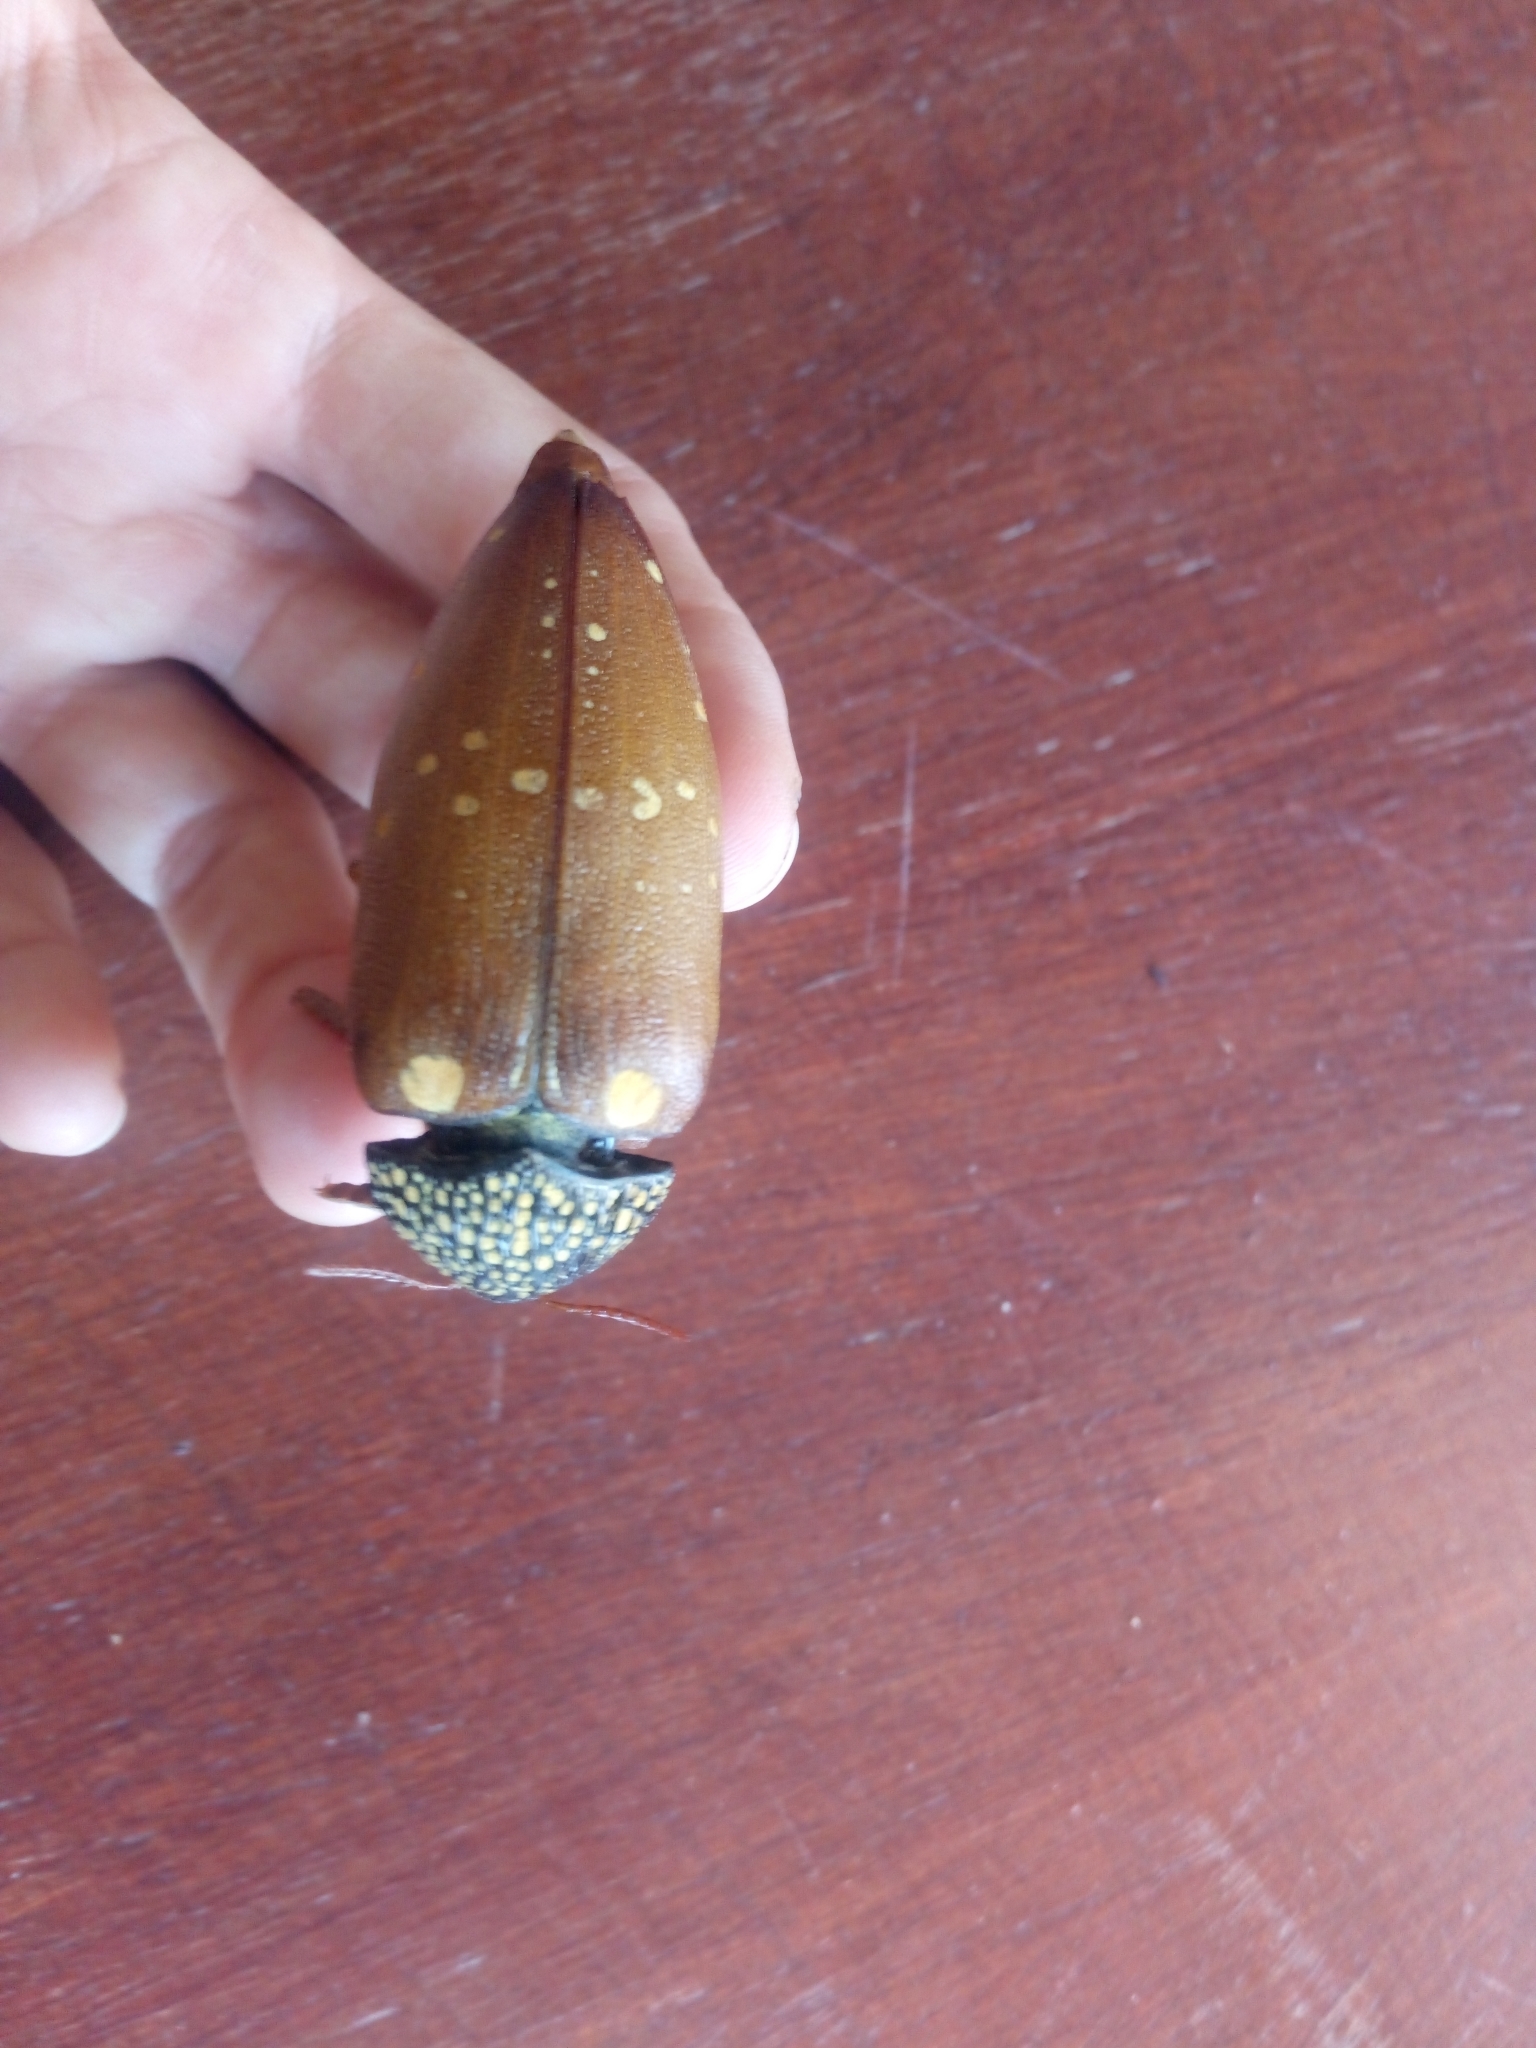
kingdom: Animalia
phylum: Arthropoda
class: Insecta
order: Coleoptera
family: Buprestidae
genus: Sternocera
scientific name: Sternocera castanea
